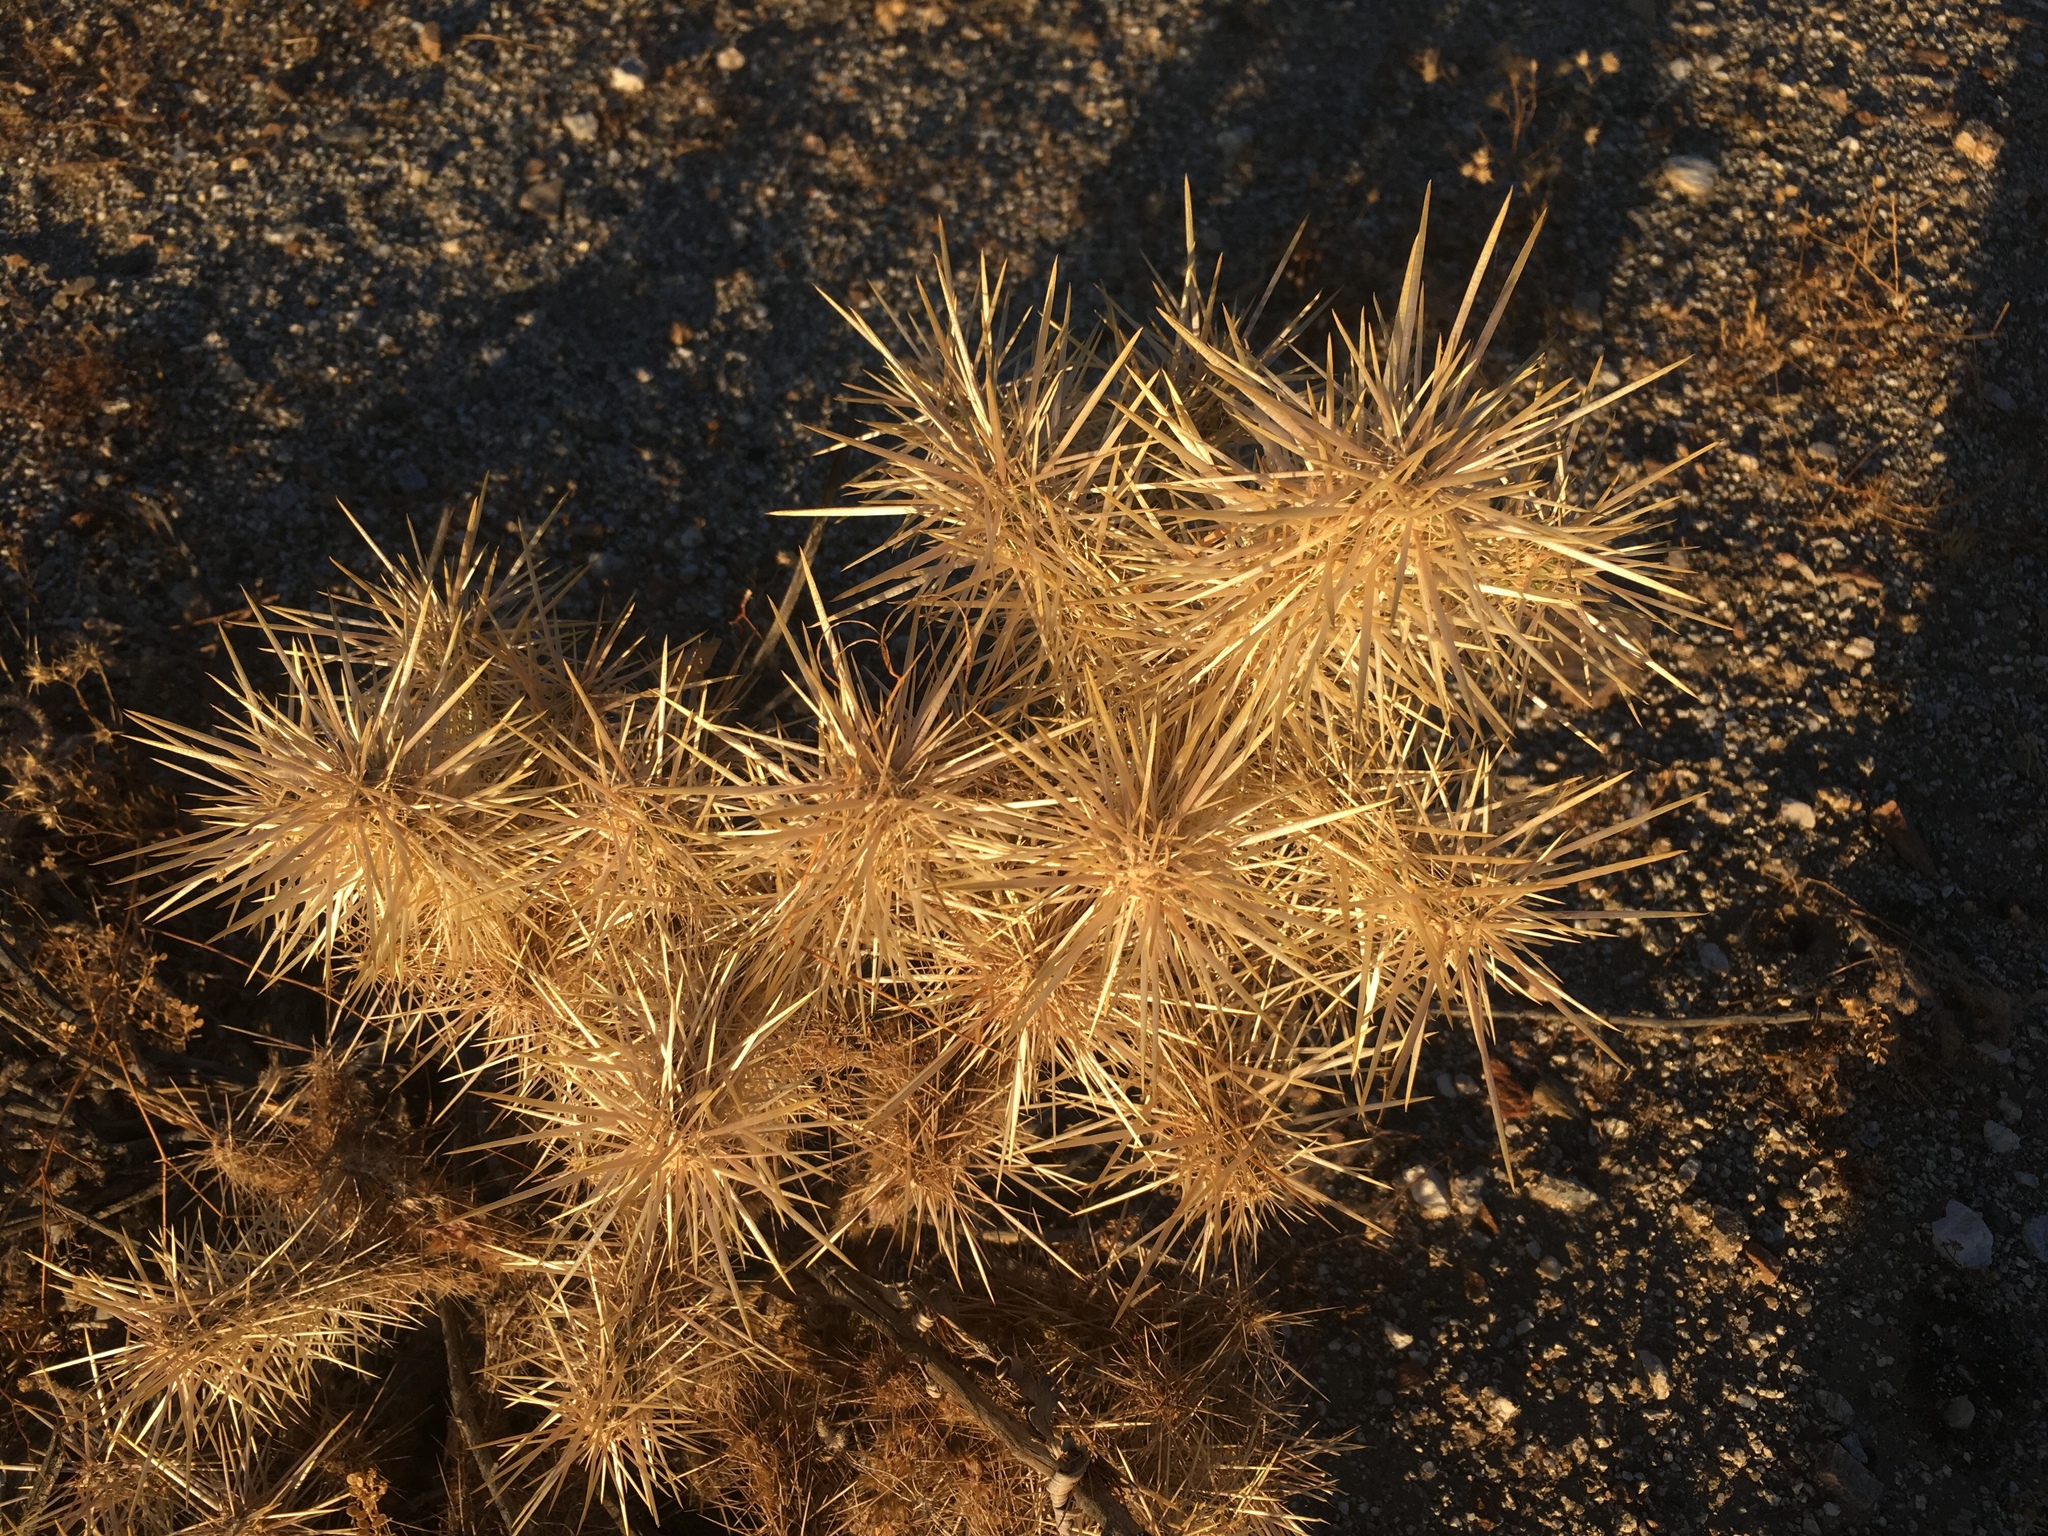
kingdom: Plantae
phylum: Tracheophyta
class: Magnoliopsida
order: Caryophyllales
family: Cactaceae
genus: Cylindropuntia
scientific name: Cylindropuntia echinocarpa
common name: Ground cholla
